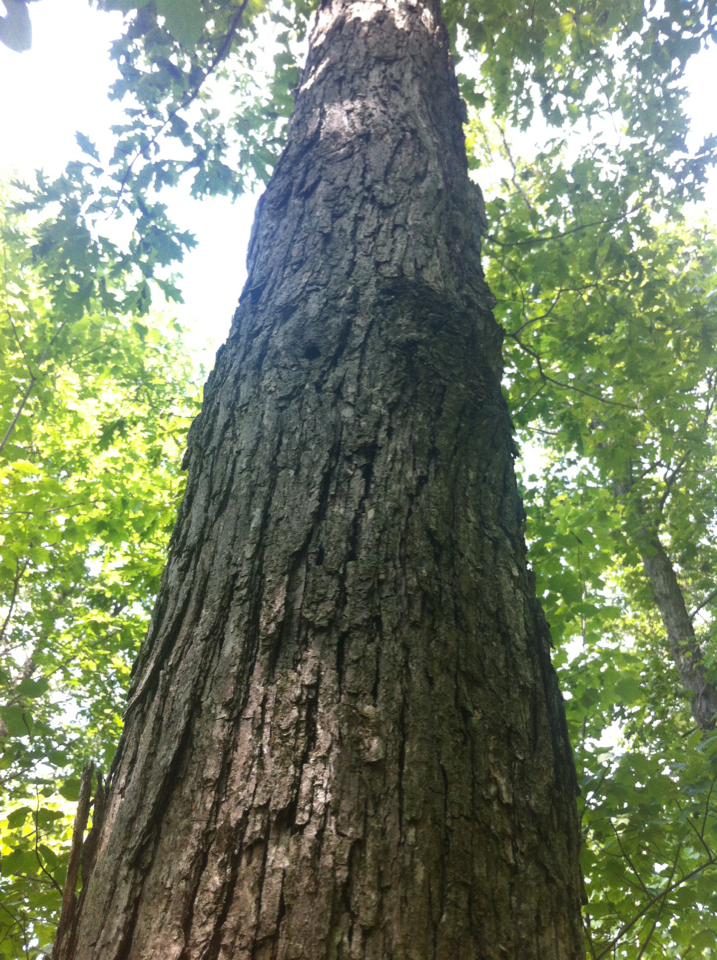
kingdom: Plantae
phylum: Tracheophyta
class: Magnoliopsida
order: Fagales
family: Fagaceae
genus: Quercus
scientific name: Quercus alba
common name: White oak
